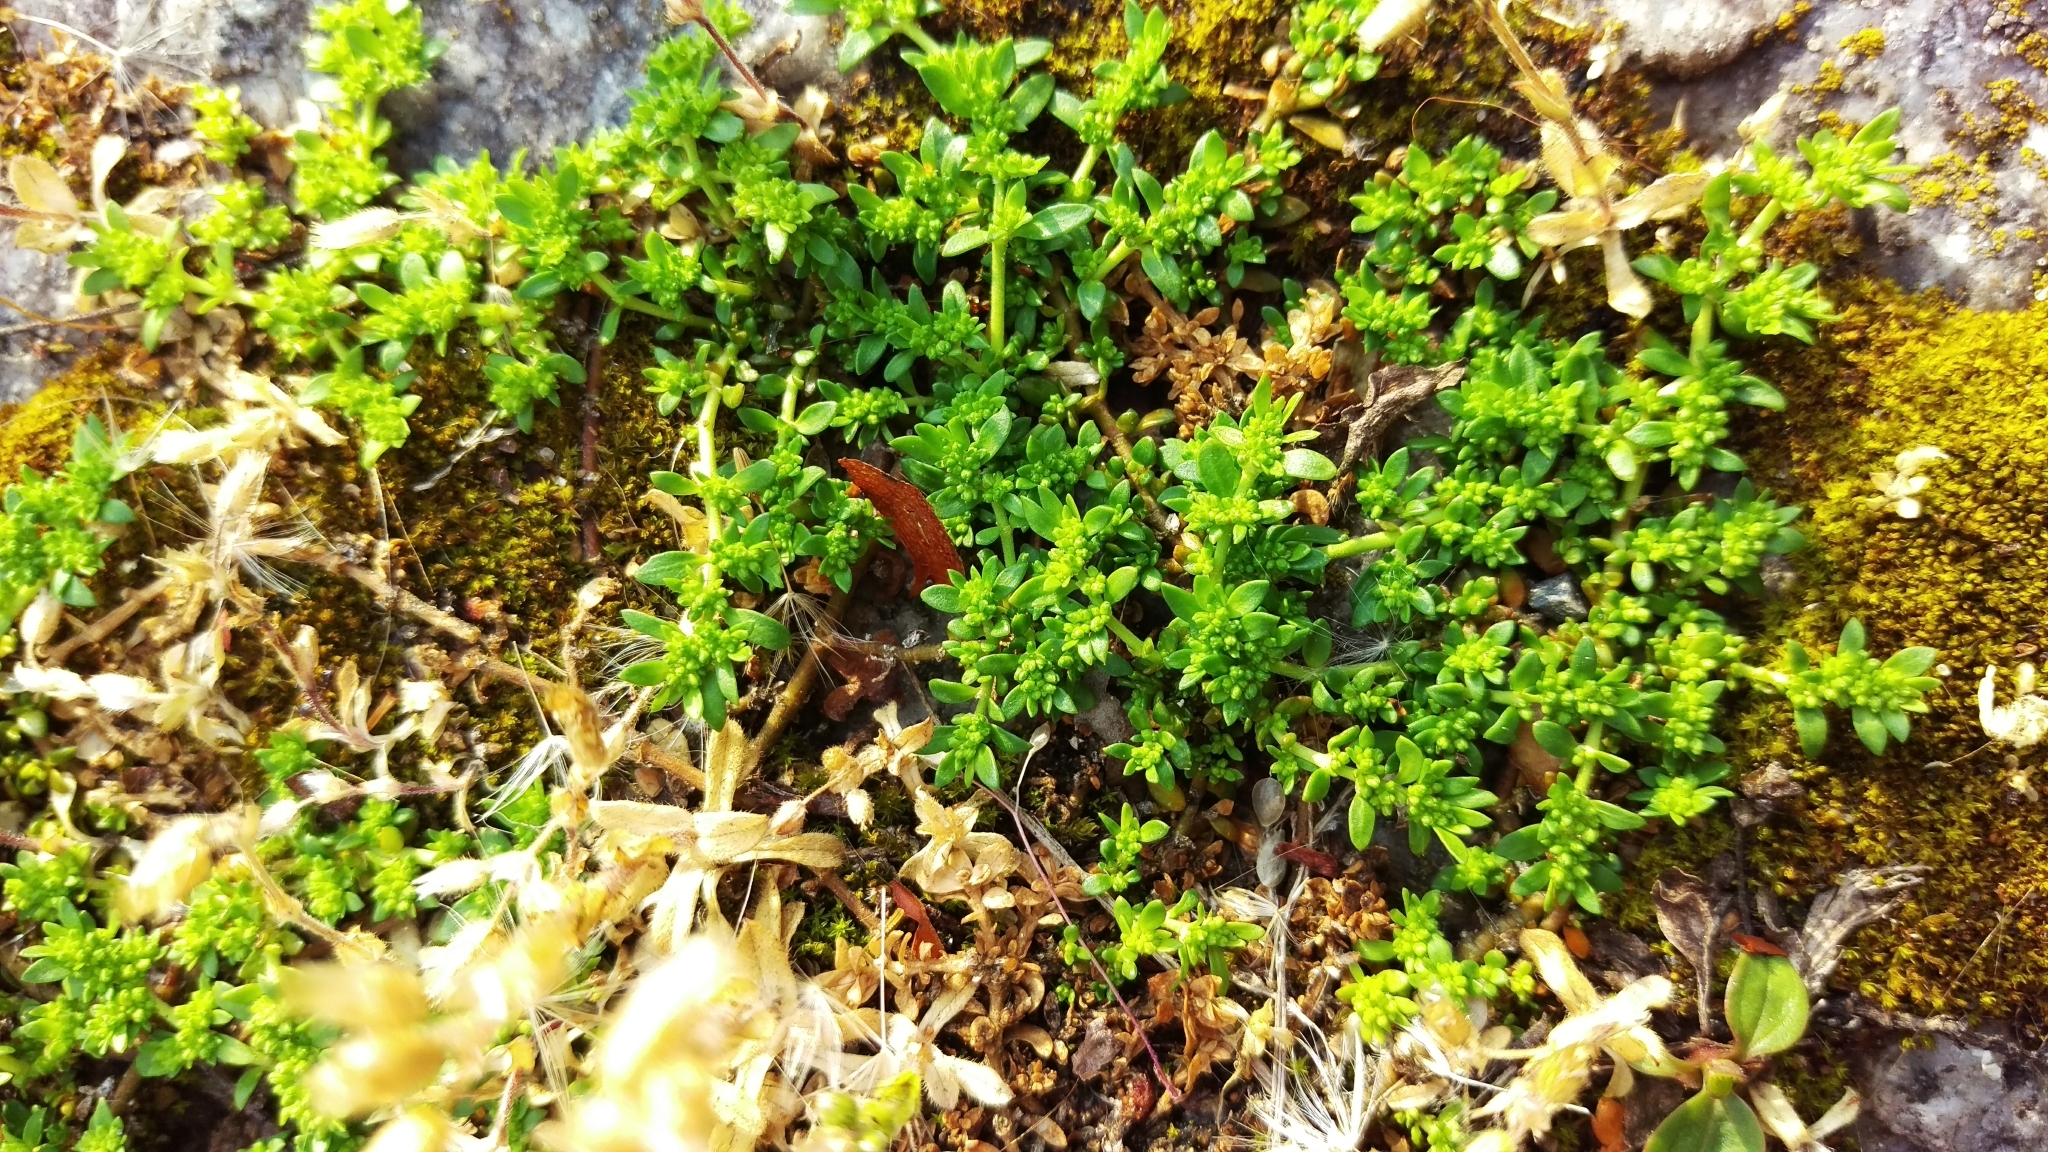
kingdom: Plantae
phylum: Tracheophyta
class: Magnoliopsida
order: Caryophyllales
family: Caryophyllaceae
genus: Herniaria
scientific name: Herniaria glabra
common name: Smooth rupturewort
